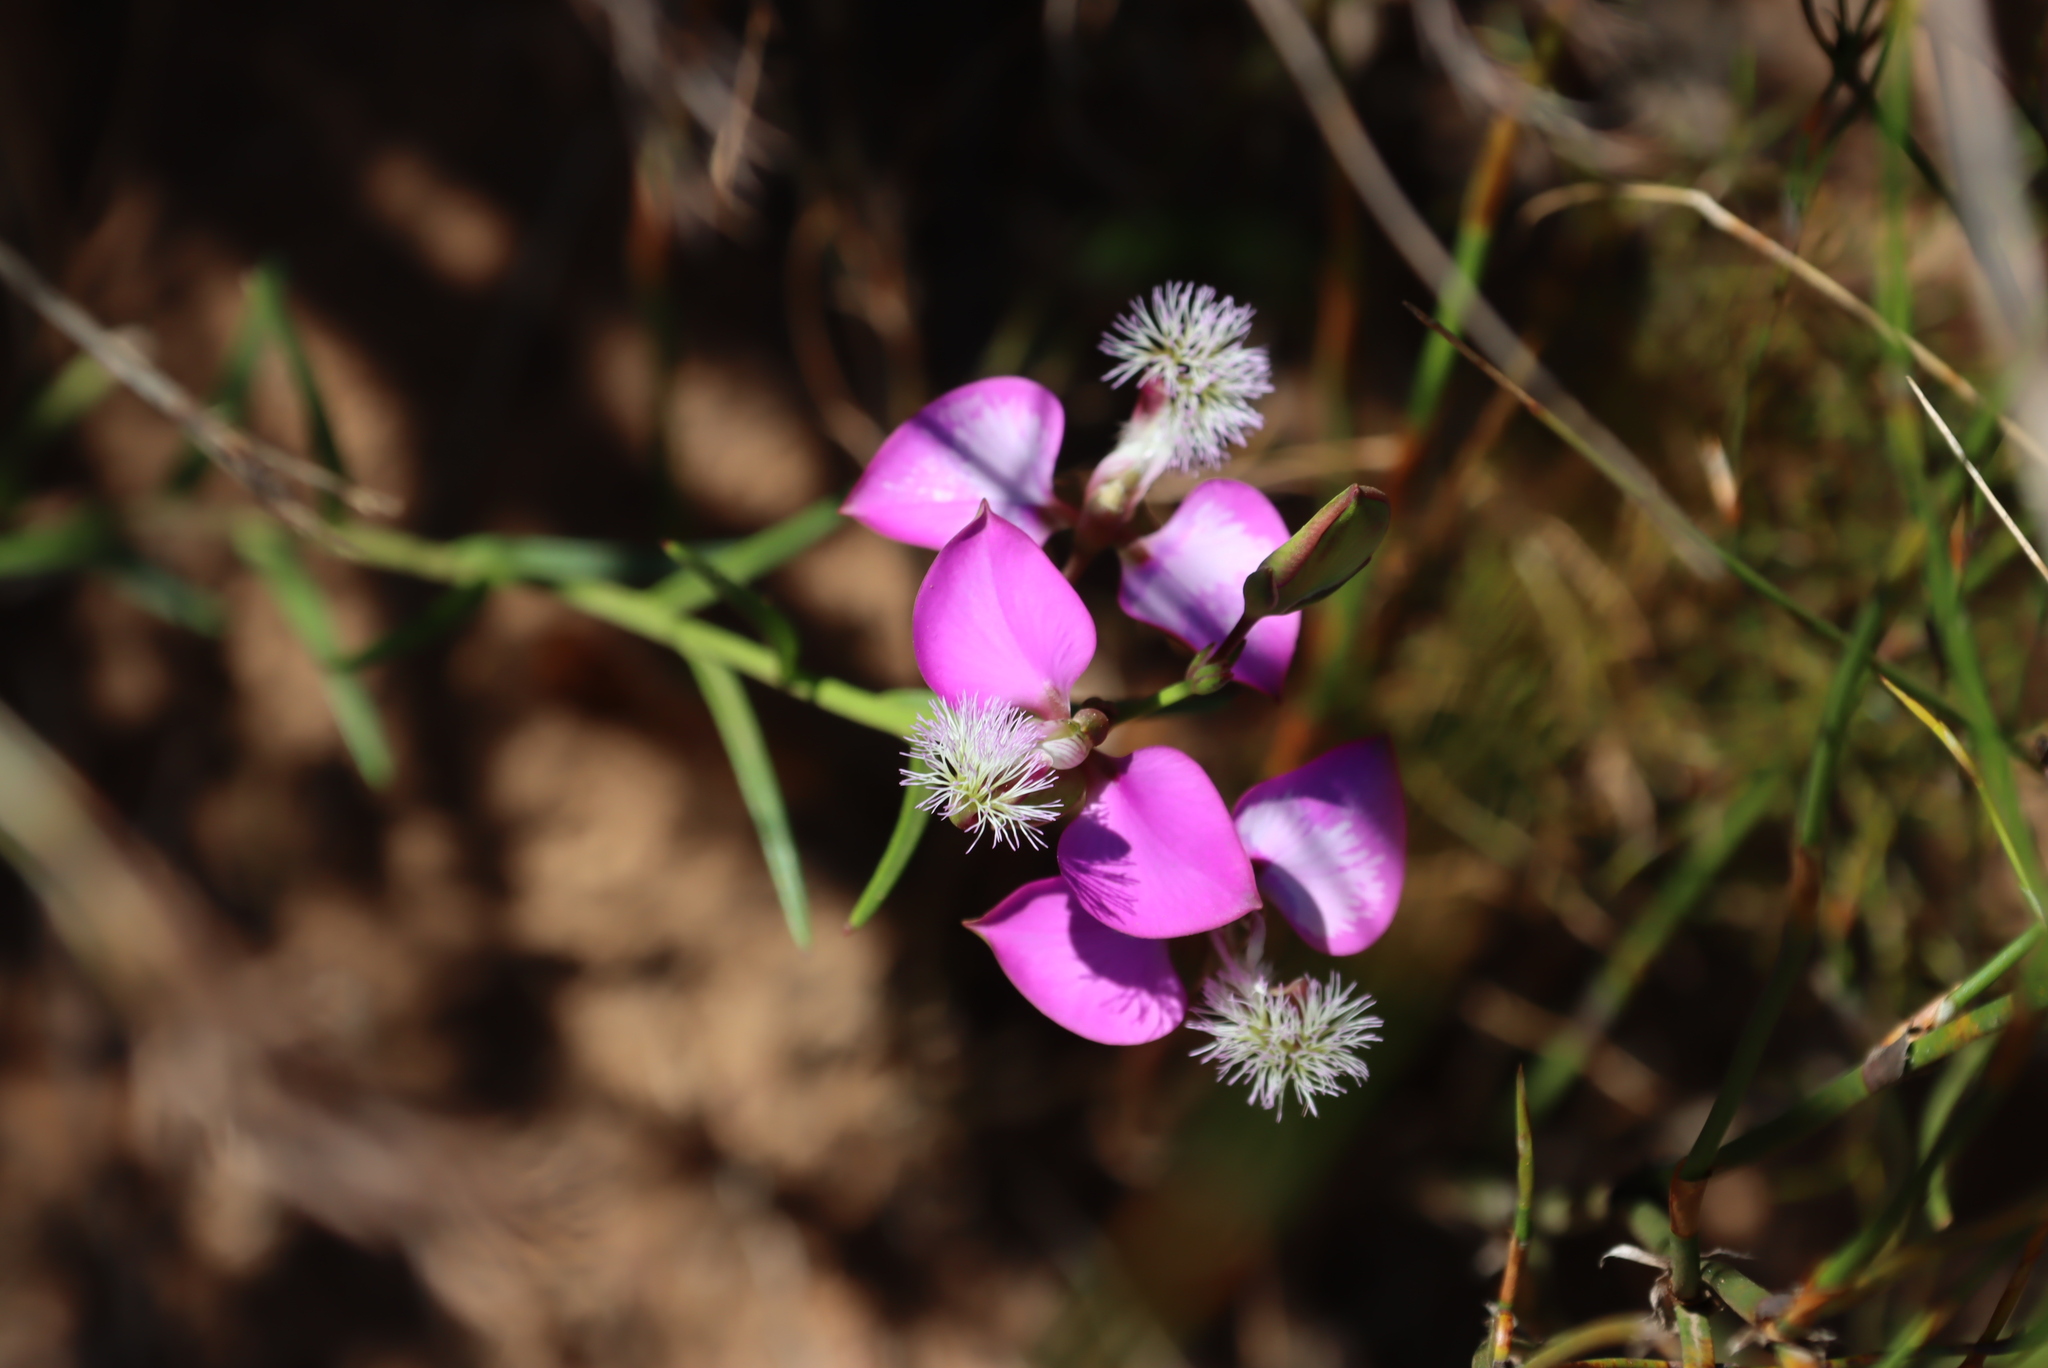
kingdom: Plantae
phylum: Tracheophyta
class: Magnoliopsida
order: Fabales
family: Polygalaceae
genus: Polygala
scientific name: Polygala bracteolata
